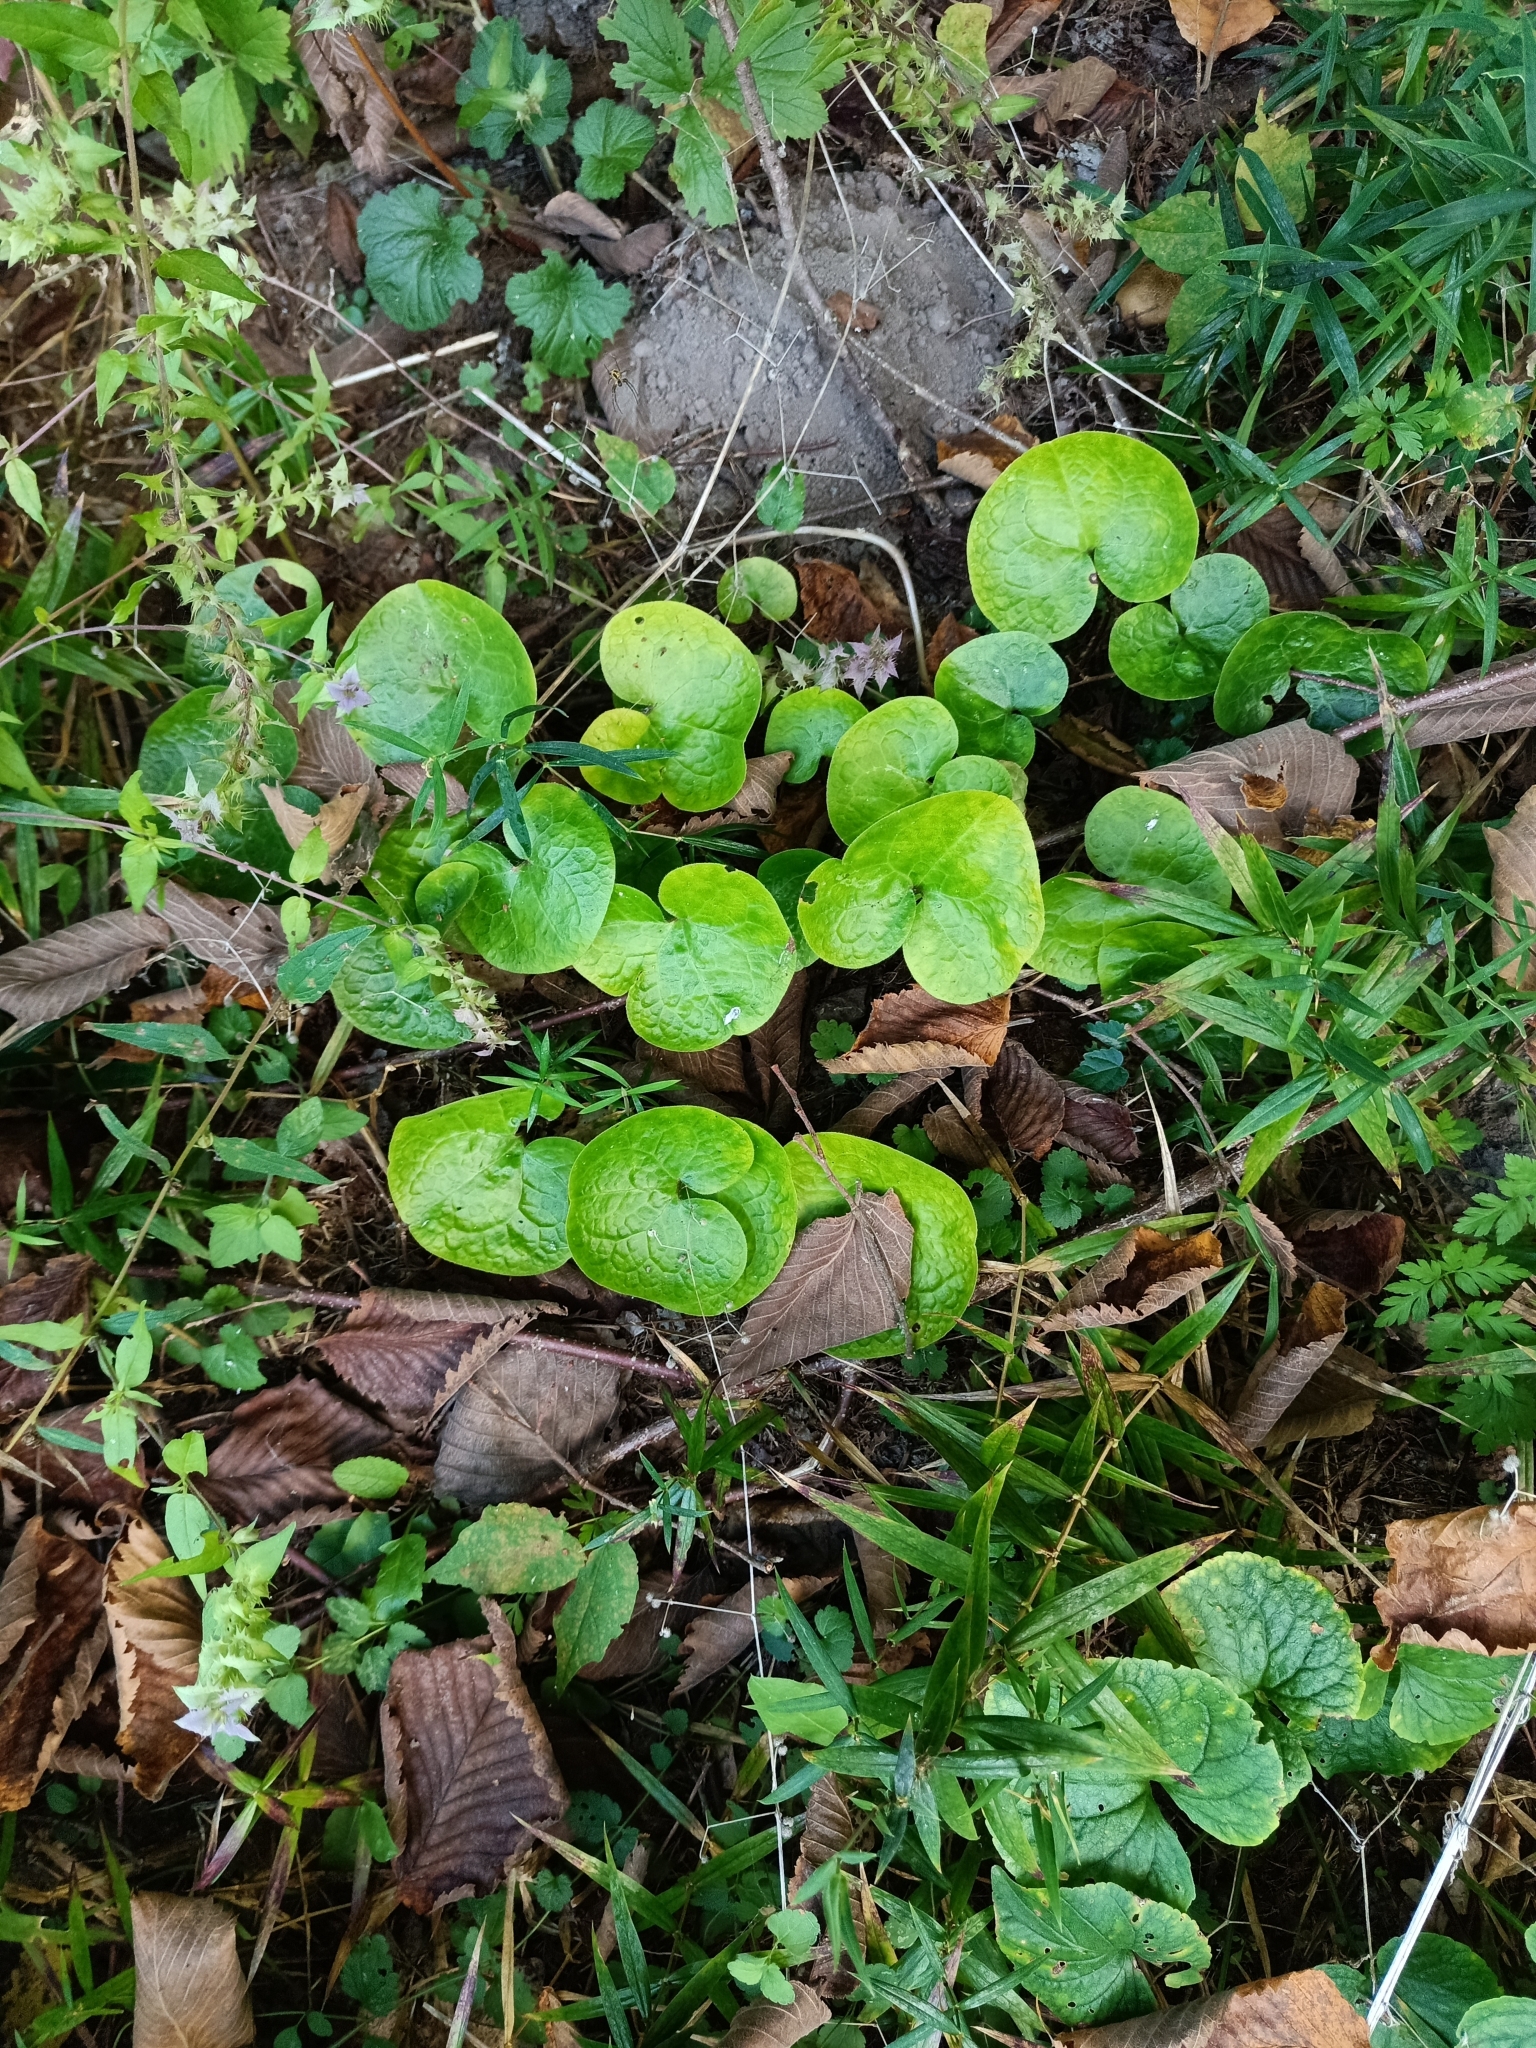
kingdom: Plantae
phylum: Tracheophyta
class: Magnoliopsida
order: Piperales
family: Aristolochiaceae
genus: Asarum
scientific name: Asarum europaeum
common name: Asarabacca
